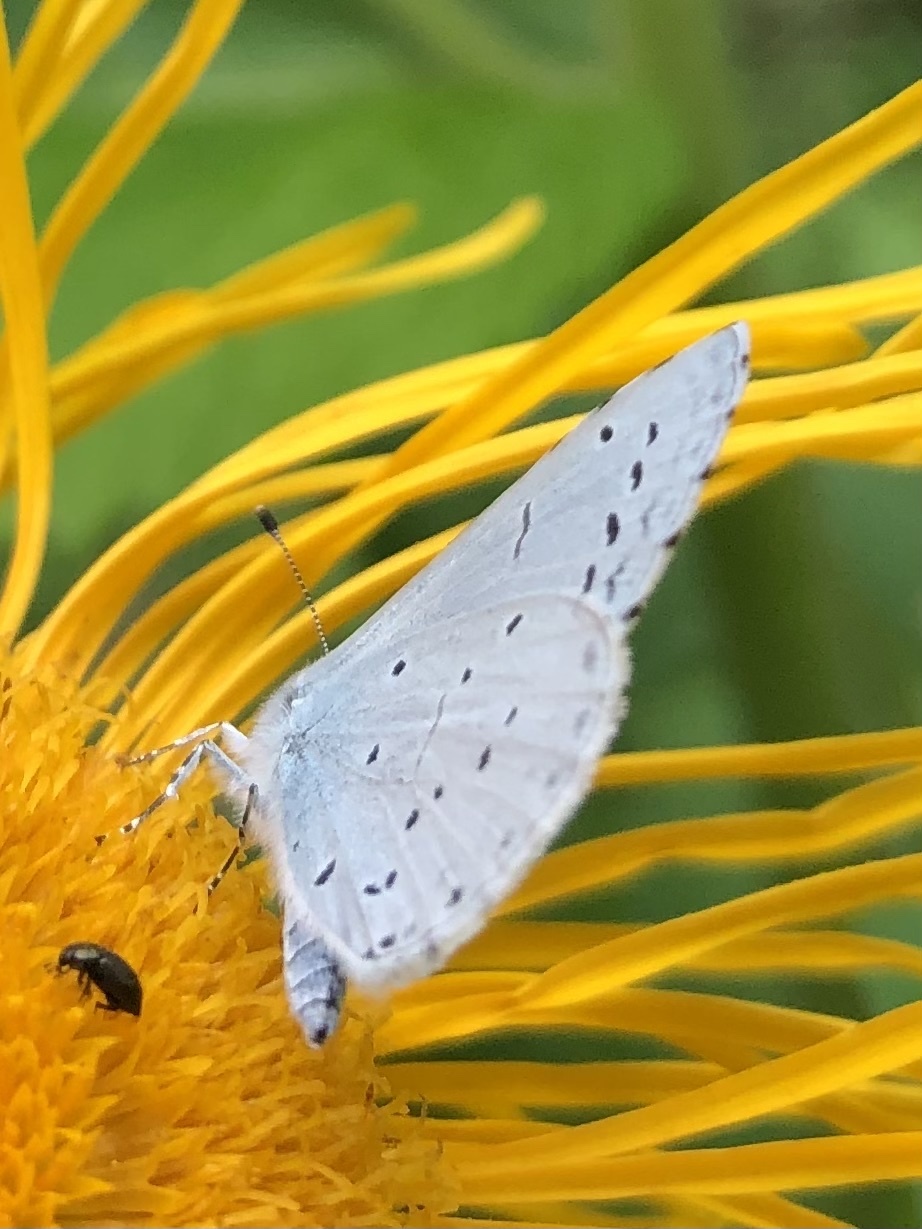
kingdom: Animalia
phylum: Arthropoda
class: Insecta
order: Lepidoptera
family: Lycaenidae
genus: Celastrina
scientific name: Celastrina argiolus
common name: Holly blue
